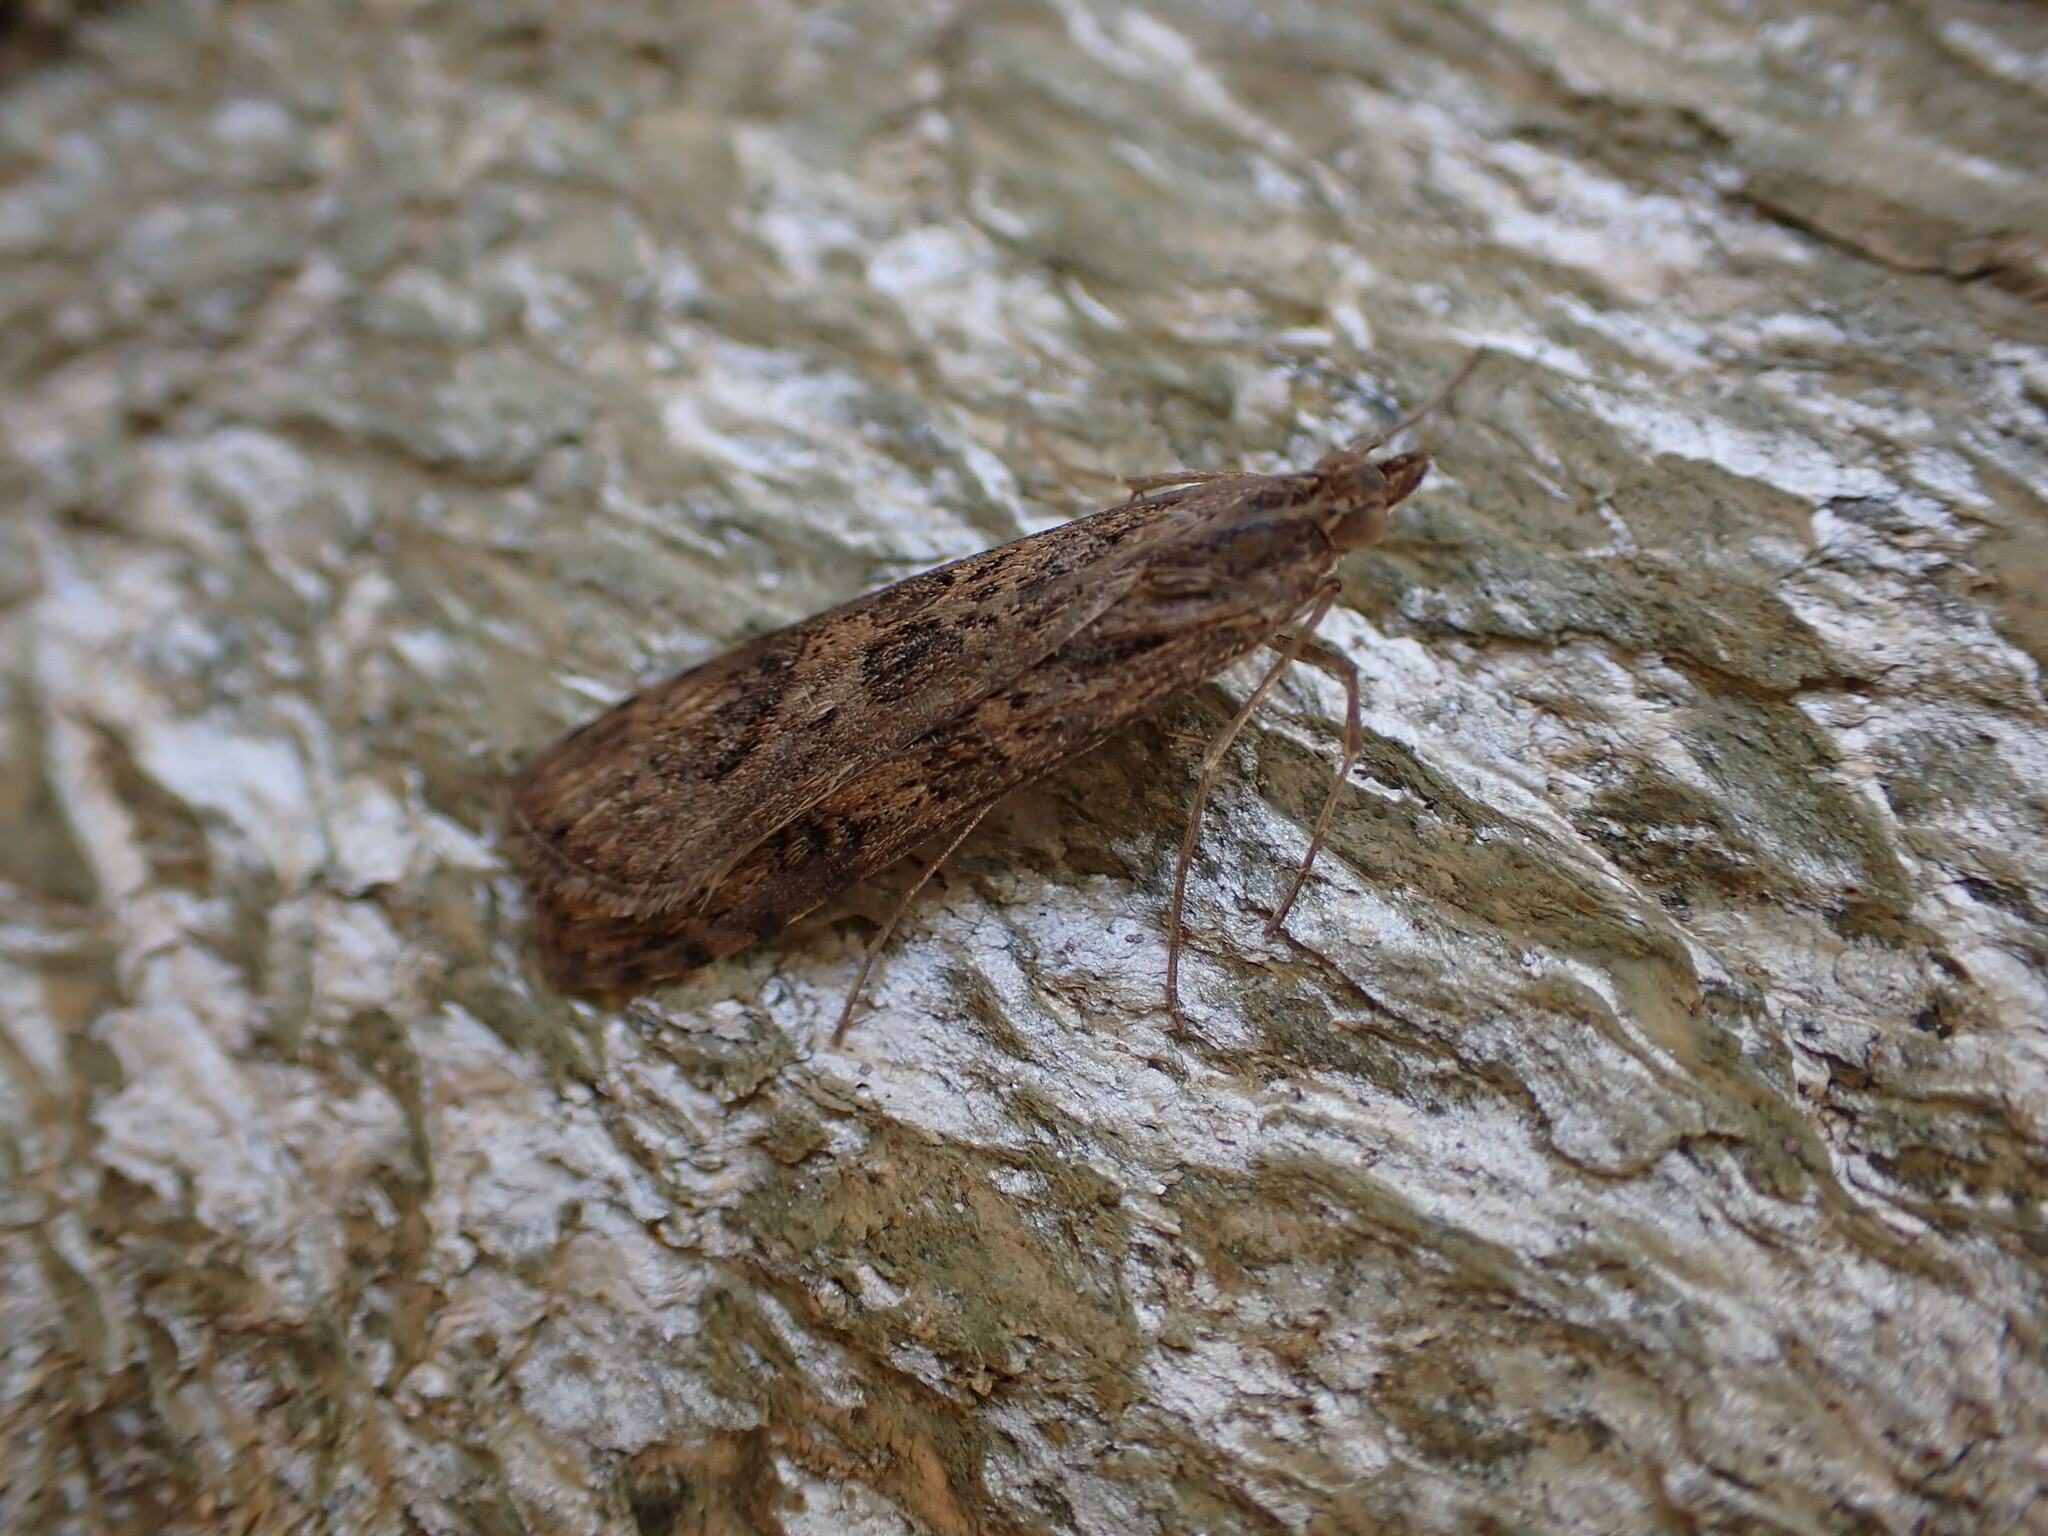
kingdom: Animalia
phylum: Arthropoda
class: Insecta
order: Lepidoptera
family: Crambidae
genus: Nomophila
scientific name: Nomophila noctuella
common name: Rush veneer
